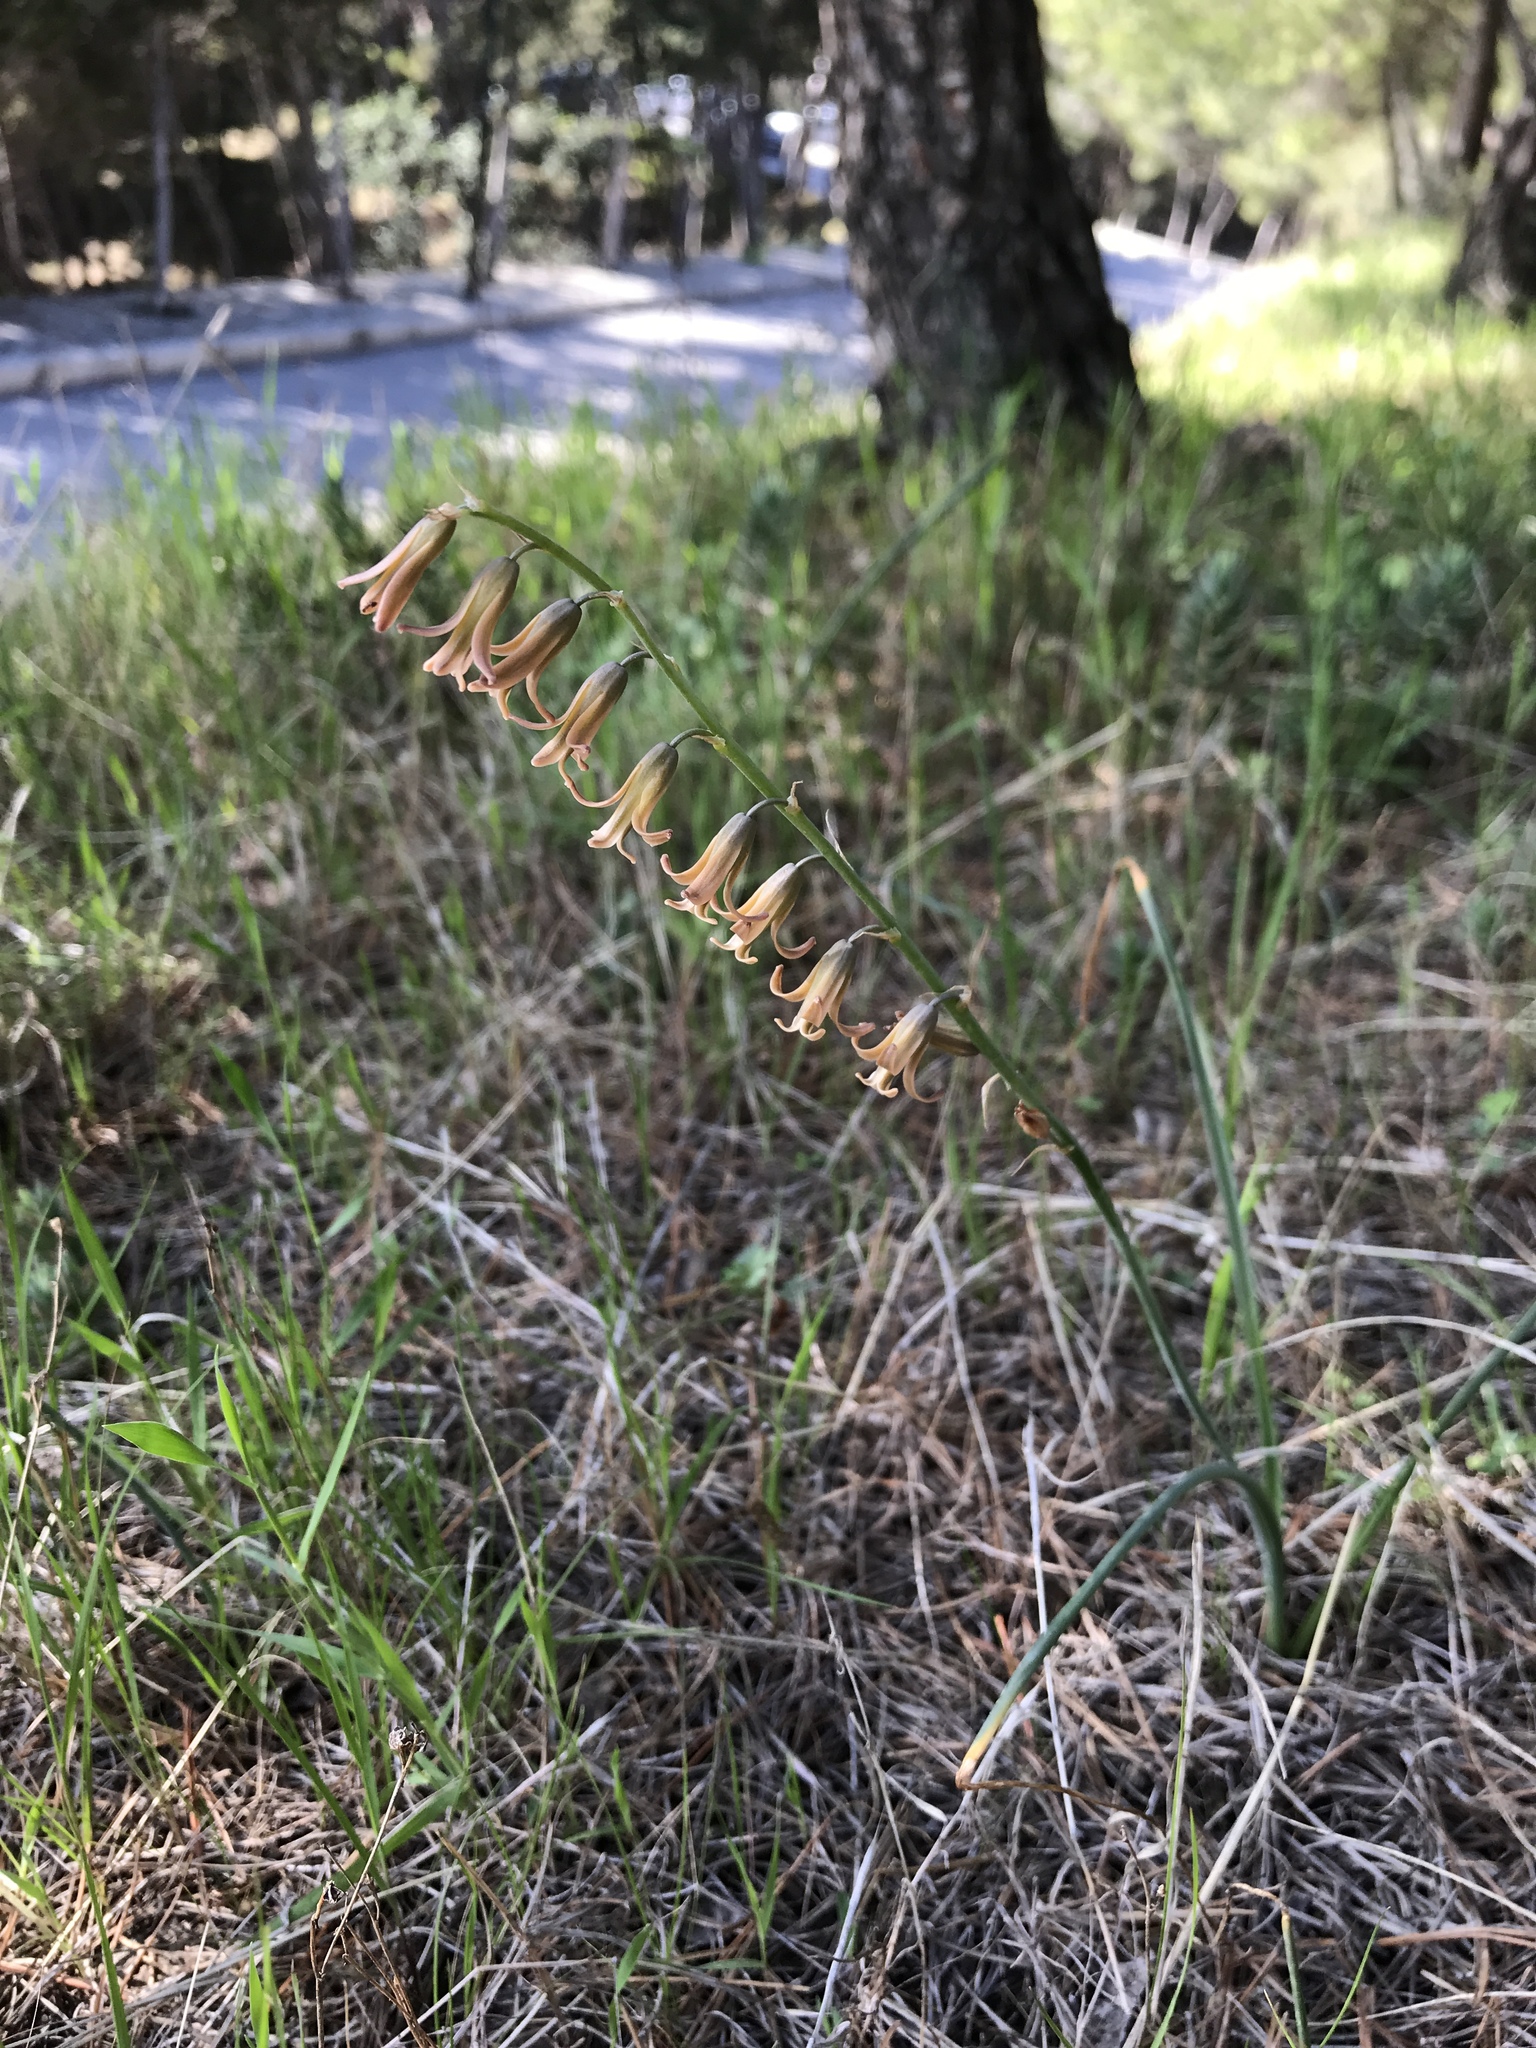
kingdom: Plantae
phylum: Tracheophyta
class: Liliopsida
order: Asparagales
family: Asparagaceae
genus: Dipcadi
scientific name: Dipcadi serotinum
